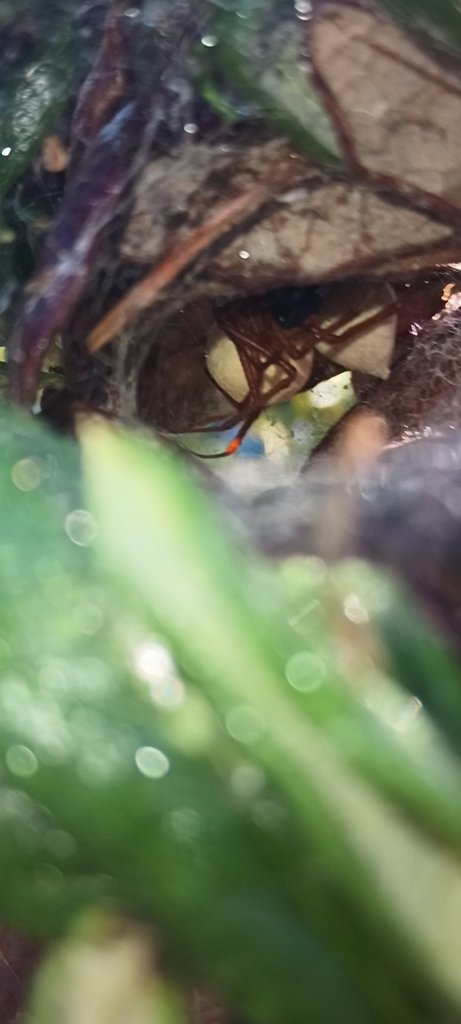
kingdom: Animalia
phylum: Arthropoda
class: Arachnida
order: Araneae
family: Theridiidae
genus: Latrodectus
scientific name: Latrodectus bishopi
